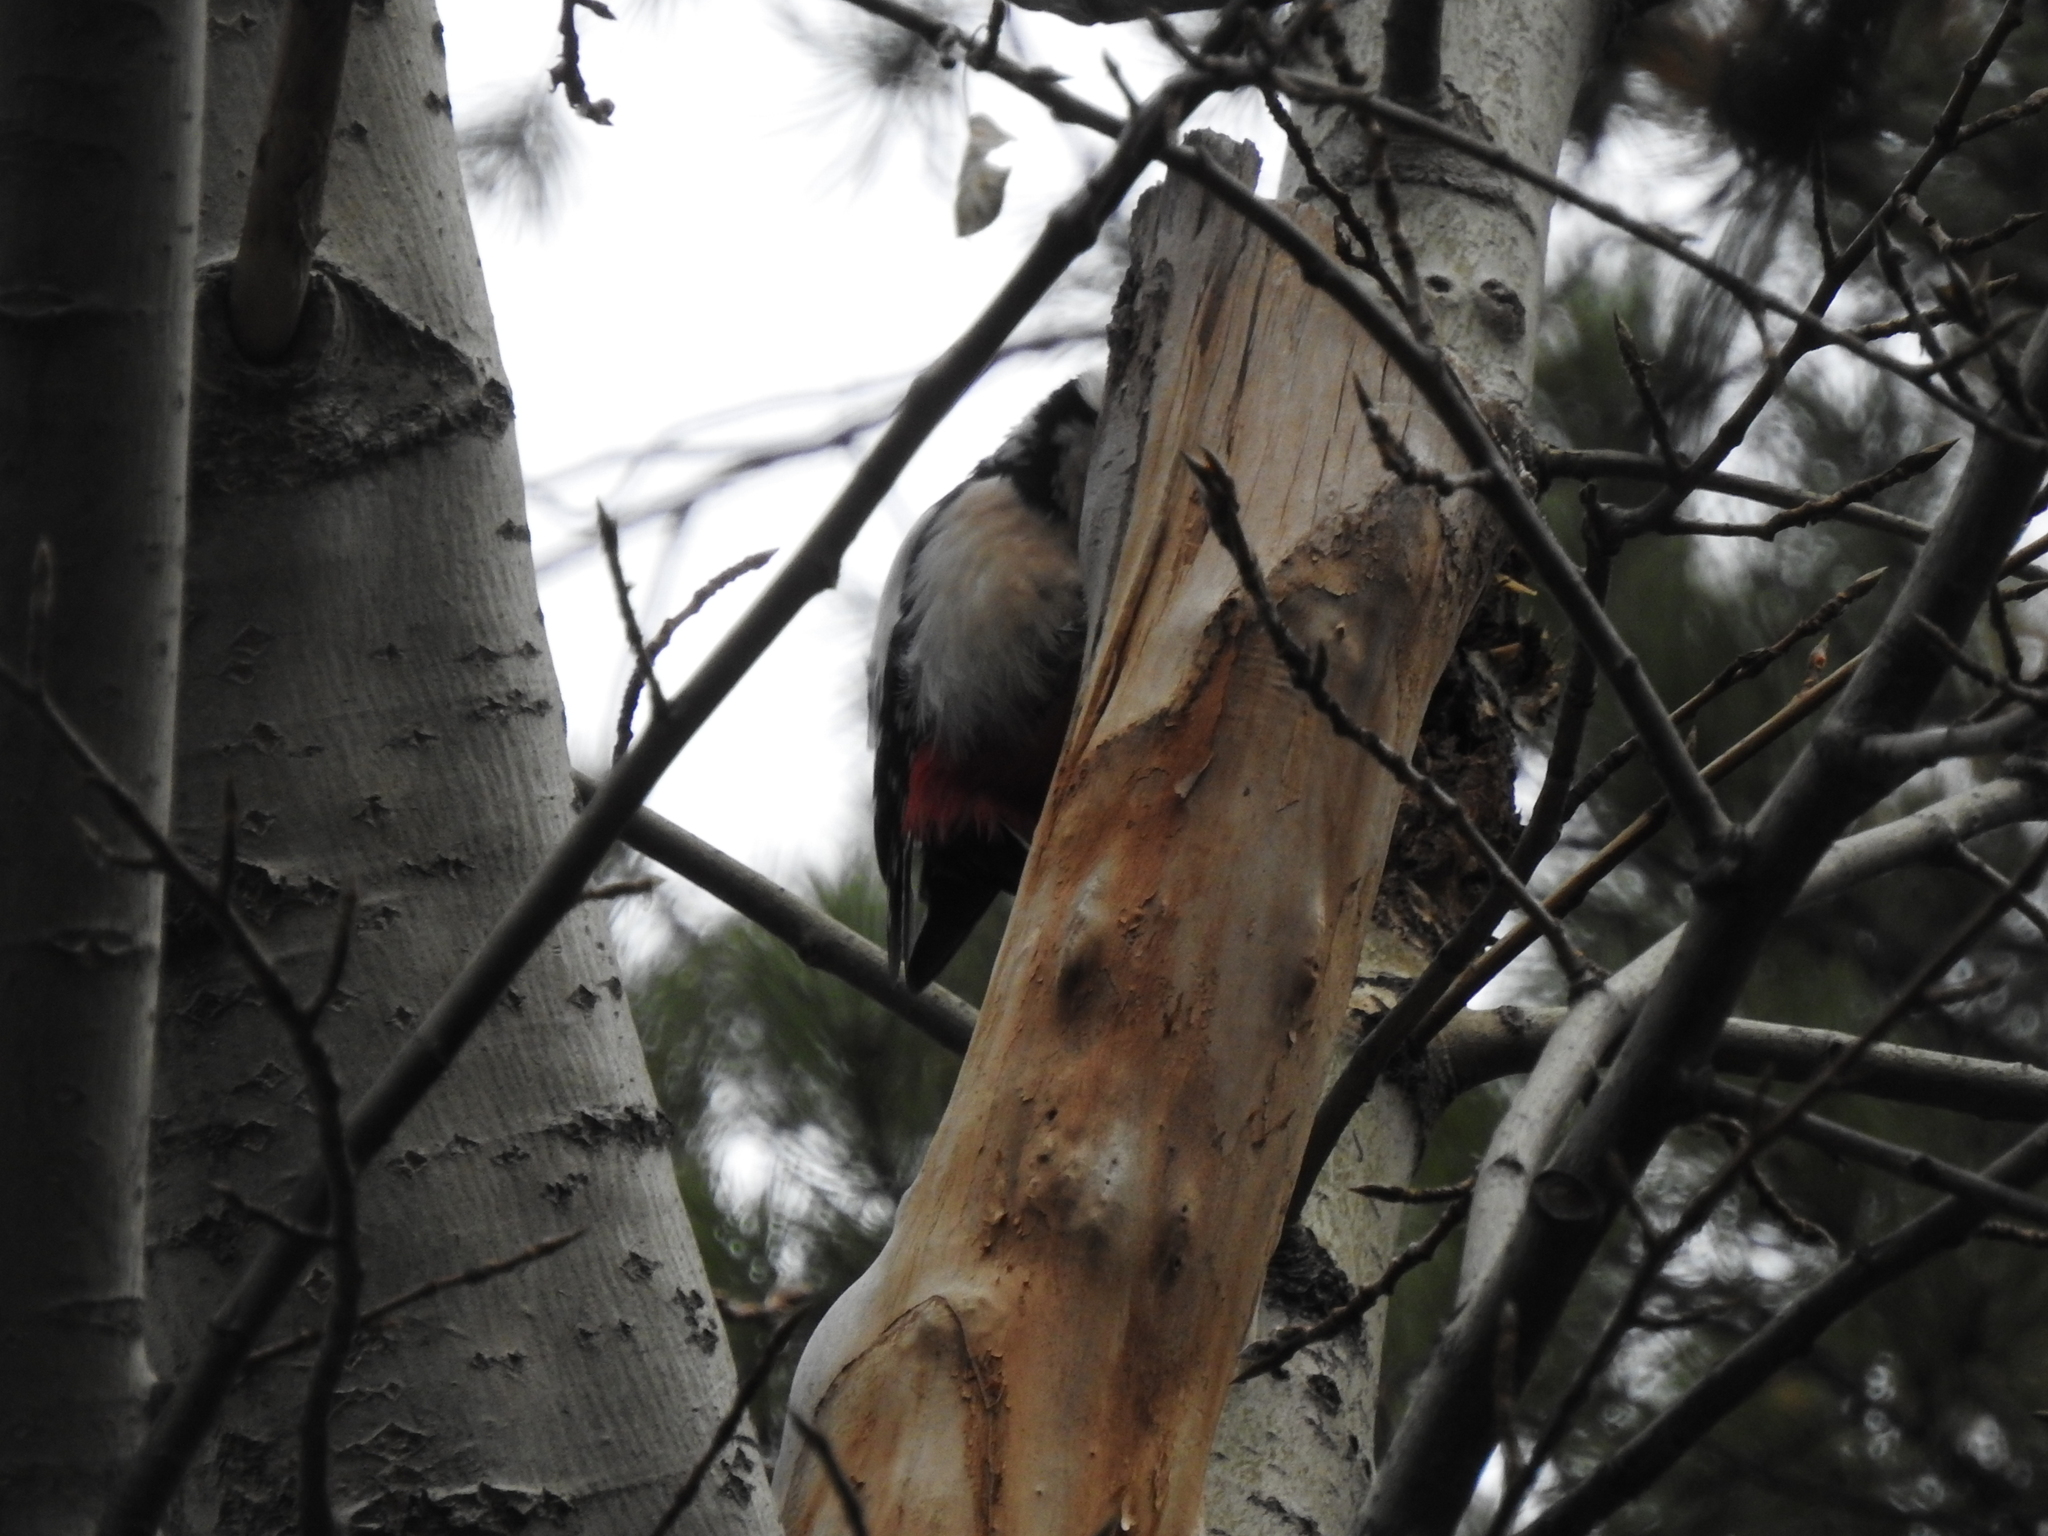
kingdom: Animalia
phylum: Chordata
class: Aves
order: Piciformes
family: Picidae
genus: Dendrocopos
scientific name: Dendrocopos major
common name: Great spotted woodpecker
